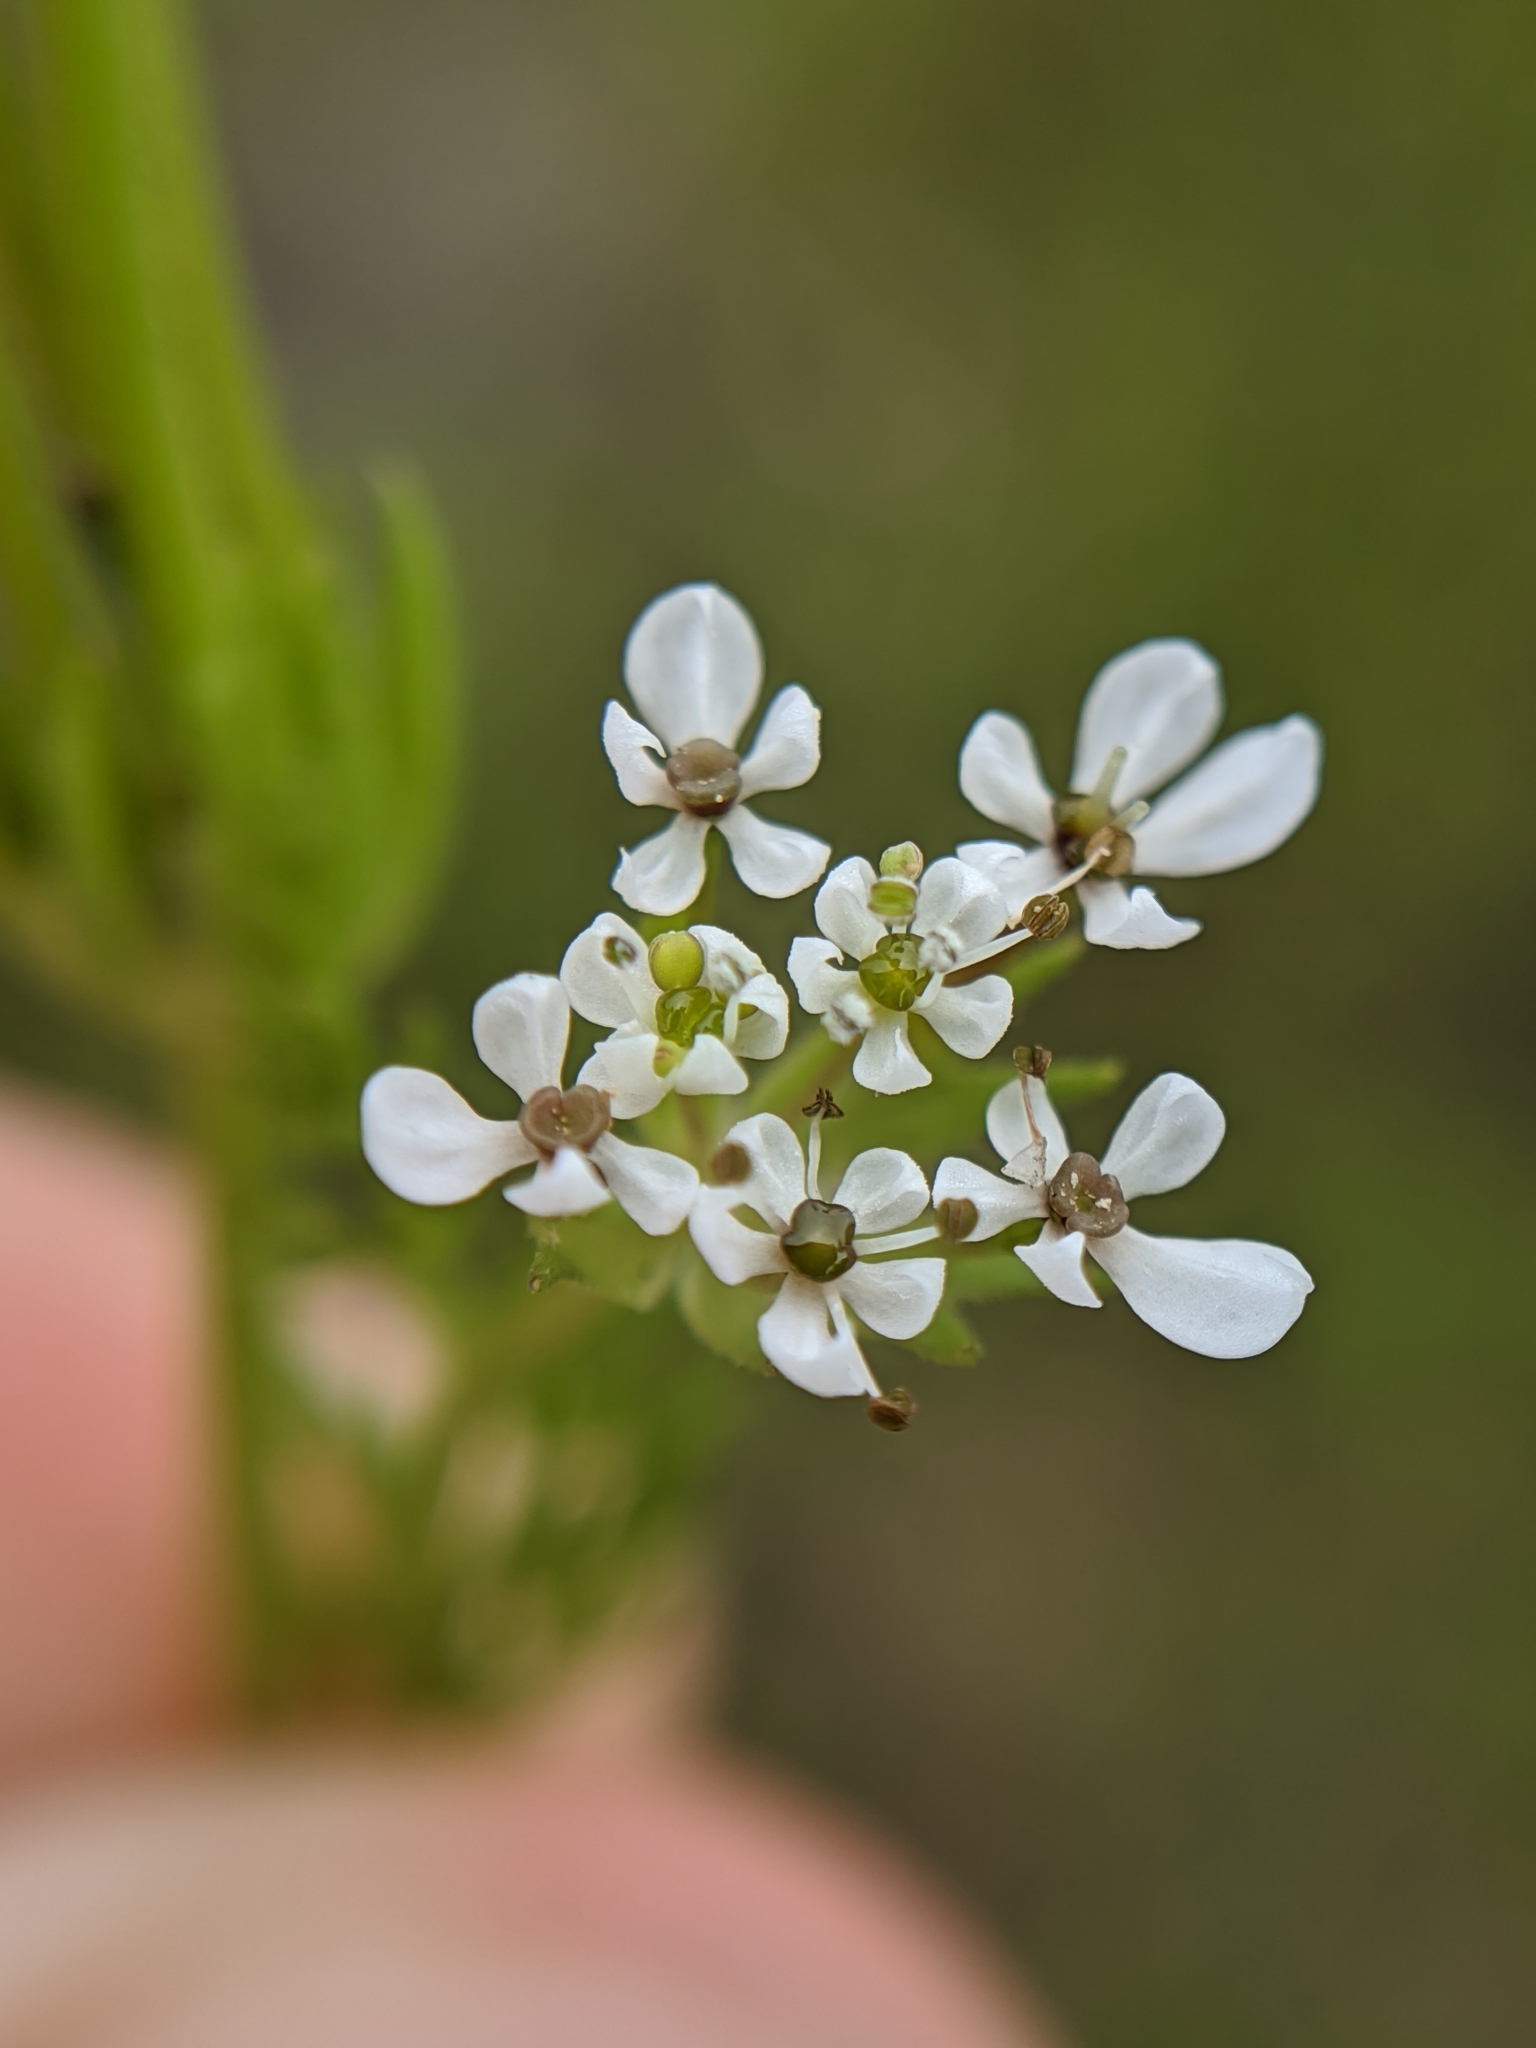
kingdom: Plantae
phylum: Tracheophyta
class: Magnoliopsida
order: Apiales
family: Apiaceae
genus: Scandix
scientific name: Scandix pecten-veneris
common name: Shepherd's-needle
